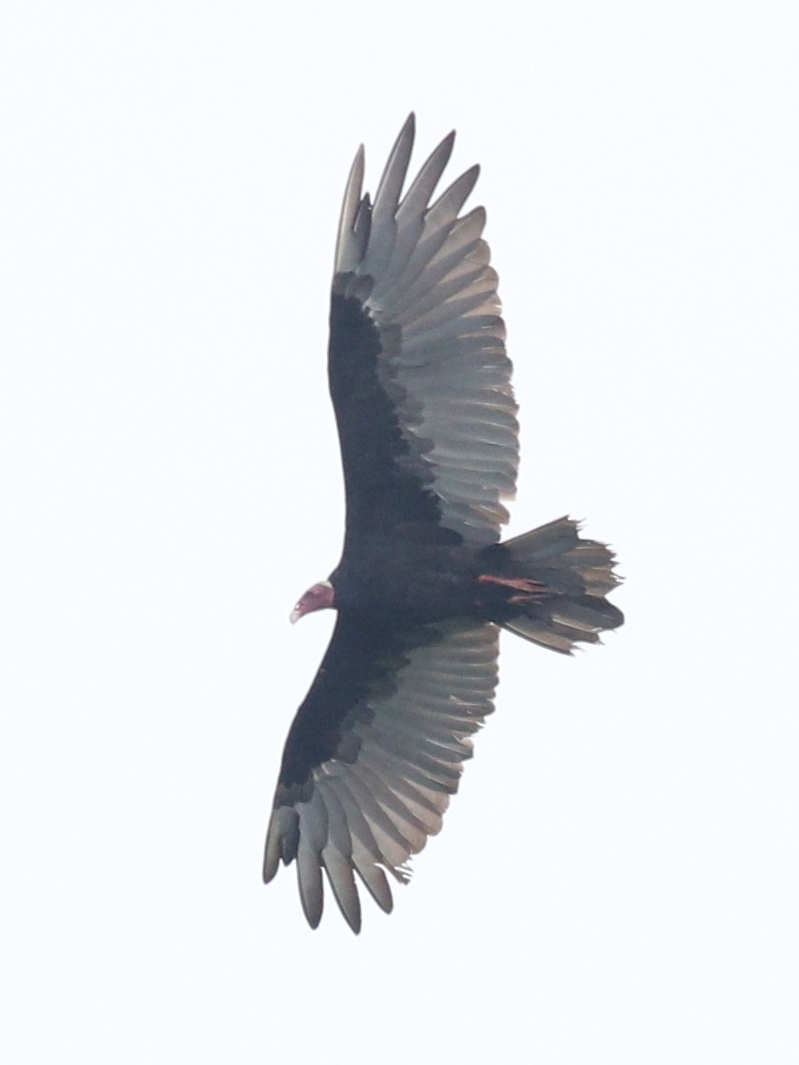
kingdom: Animalia
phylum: Chordata
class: Aves
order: Accipitriformes
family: Cathartidae
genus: Cathartes
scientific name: Cathartes aura
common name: Turkey vulture
